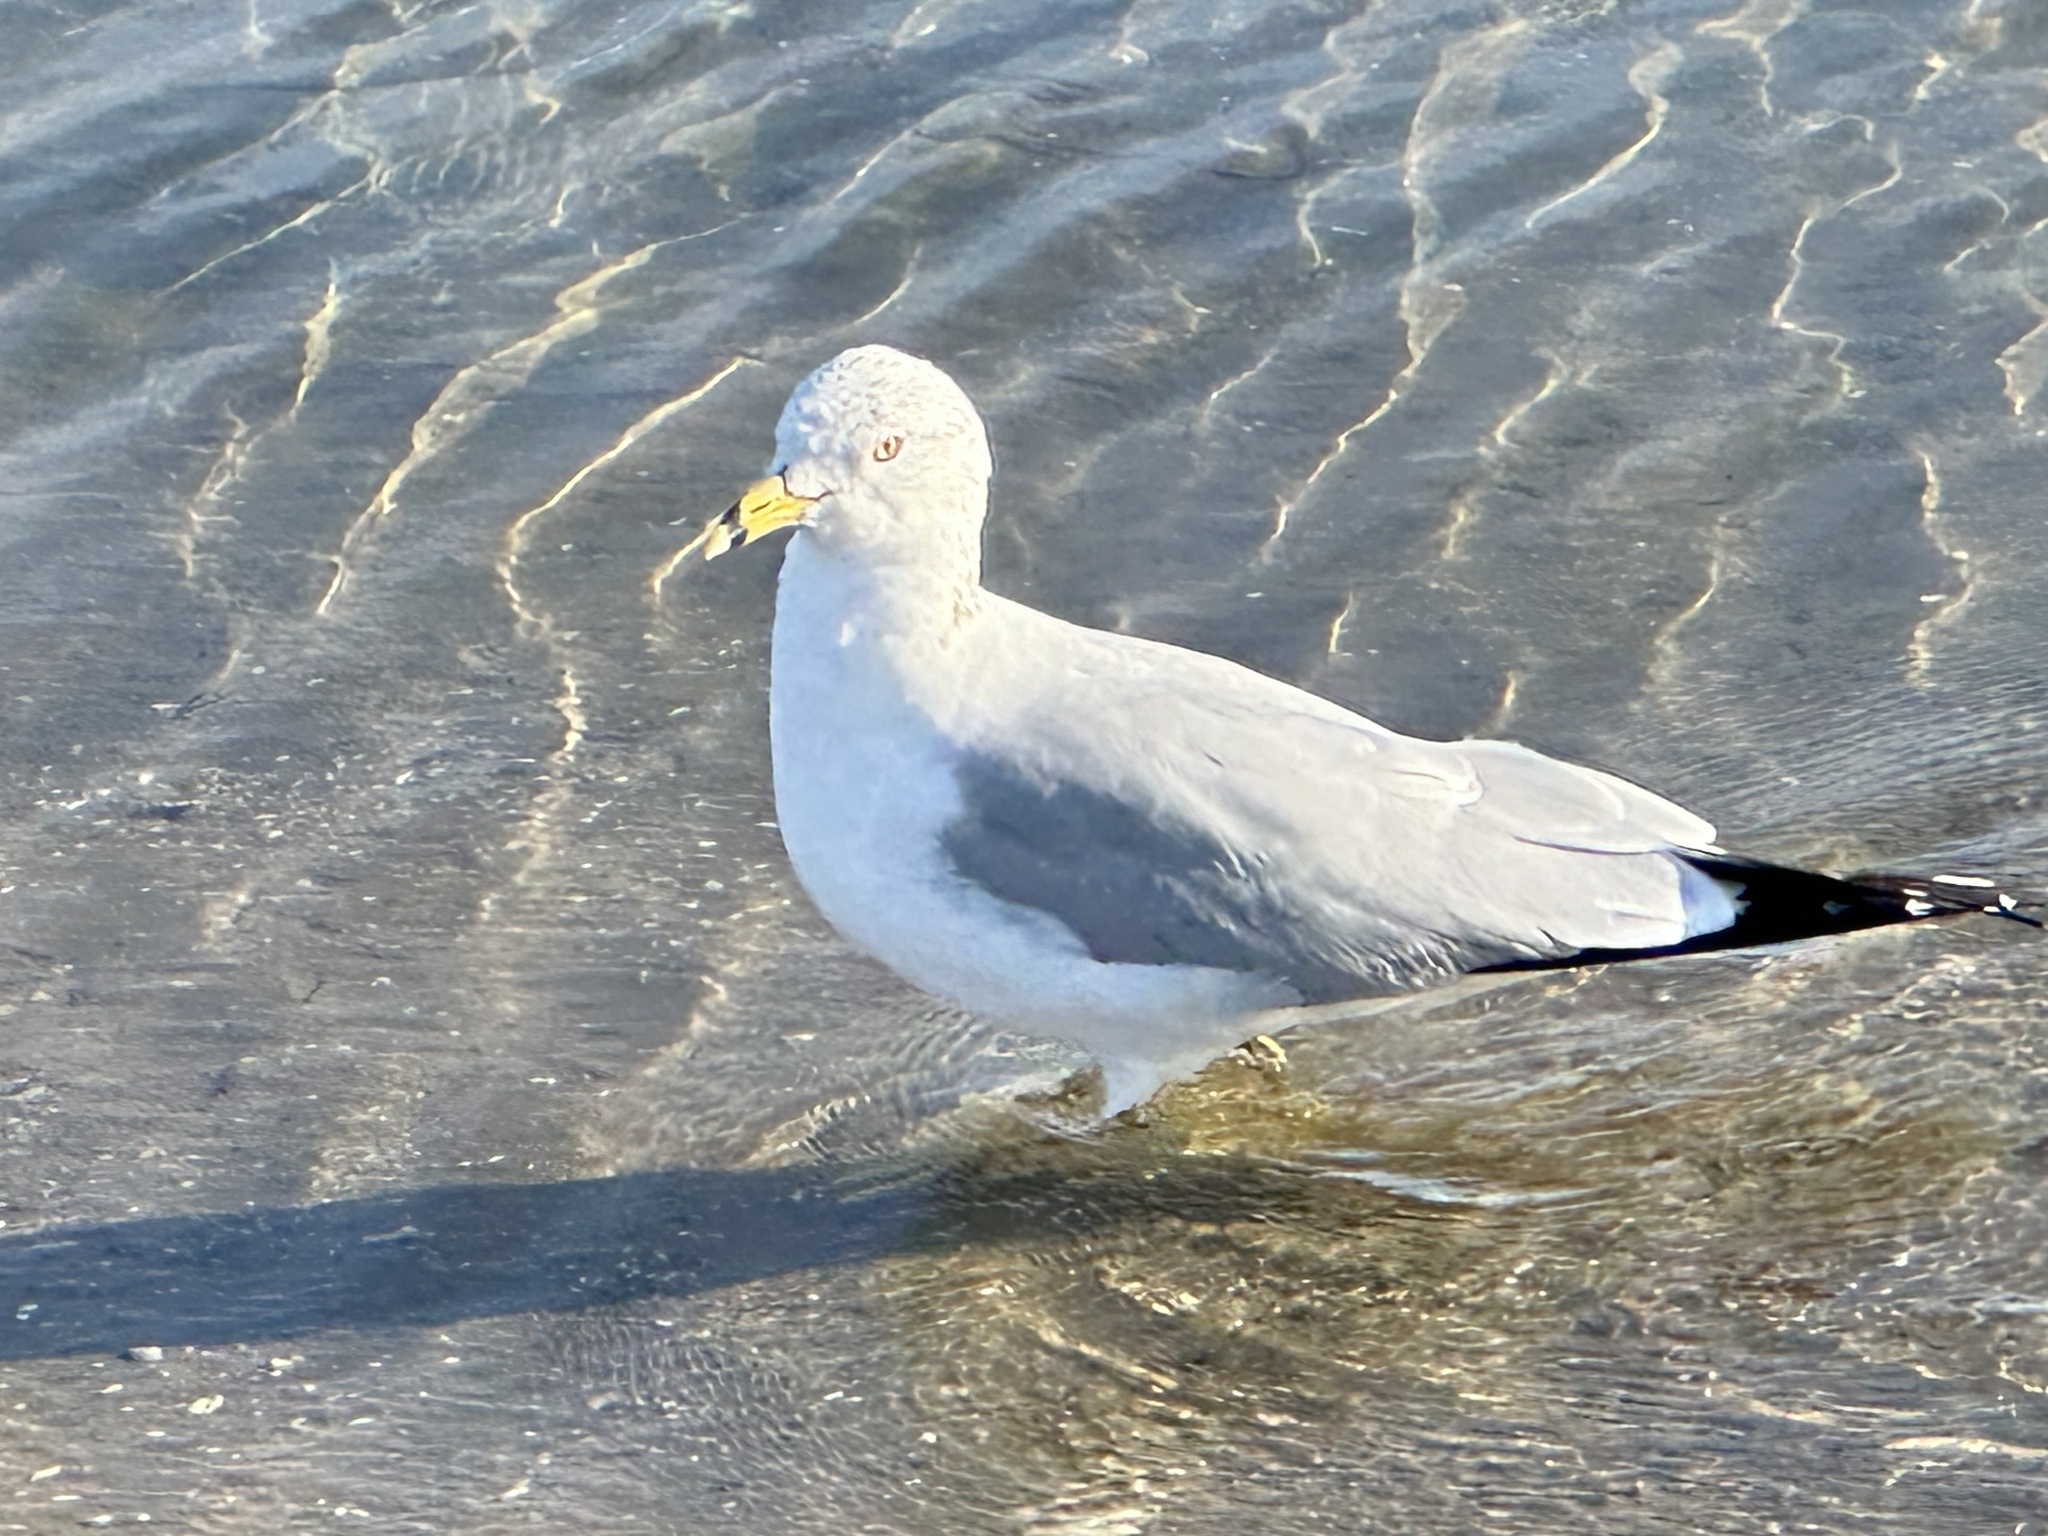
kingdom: Animalia
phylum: Chordata
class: Aves
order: Charadriiformes
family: Laridae
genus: Larus
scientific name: Larus delawarensis
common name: Ring-billed gull
